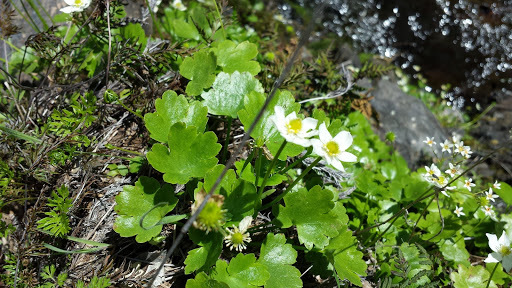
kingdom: Plantae
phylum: Tracheophyta
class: Magnoliopsida
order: Ranunculales
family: Ranunculaceae
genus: Kumlienia
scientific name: Kumlienia hystricula
